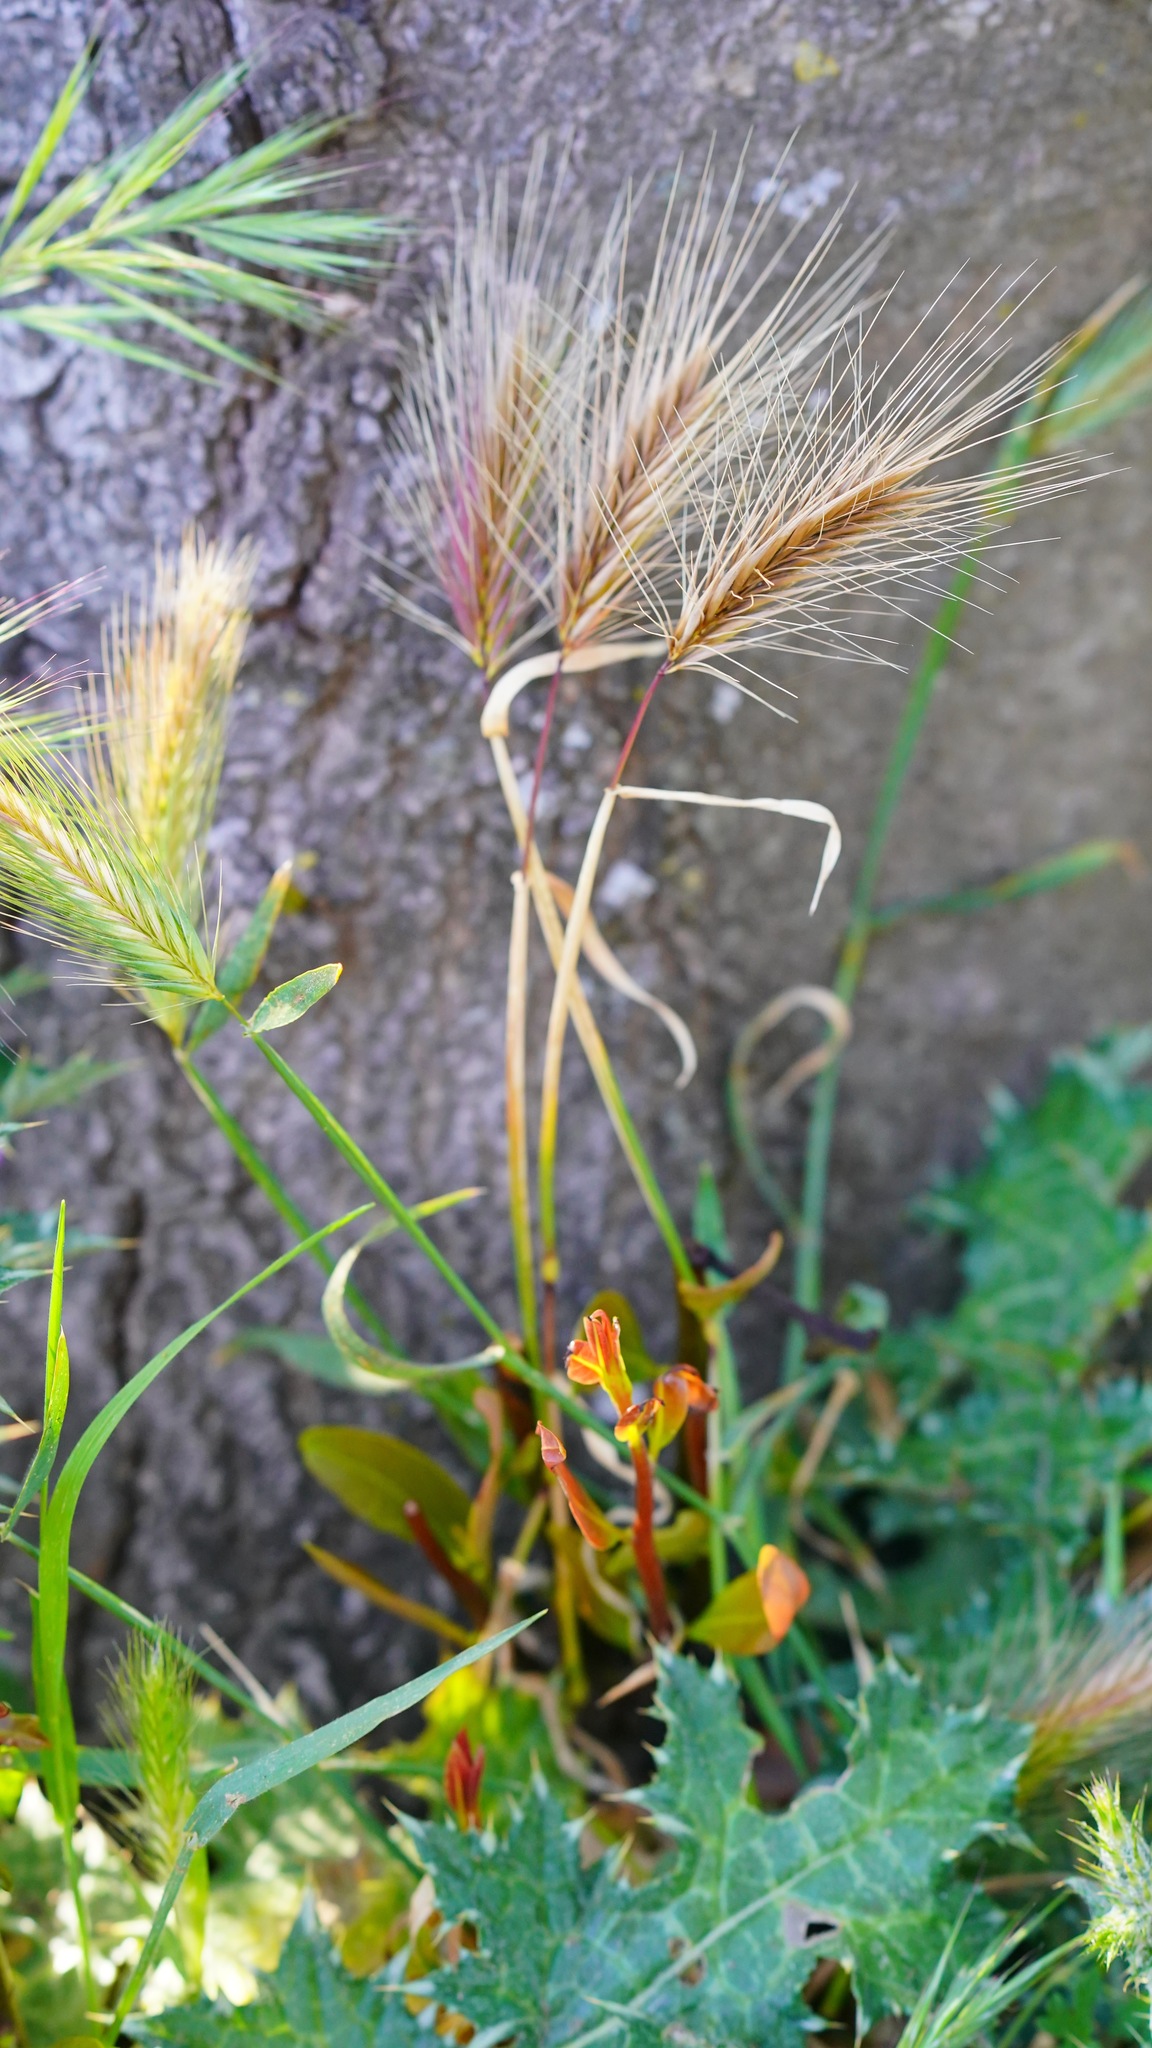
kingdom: Plantae
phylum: Tracheophyta
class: Liliopsida
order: Poales
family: Poaceae
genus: Hordeum
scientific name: Hordeum murinum
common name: Wall barley
